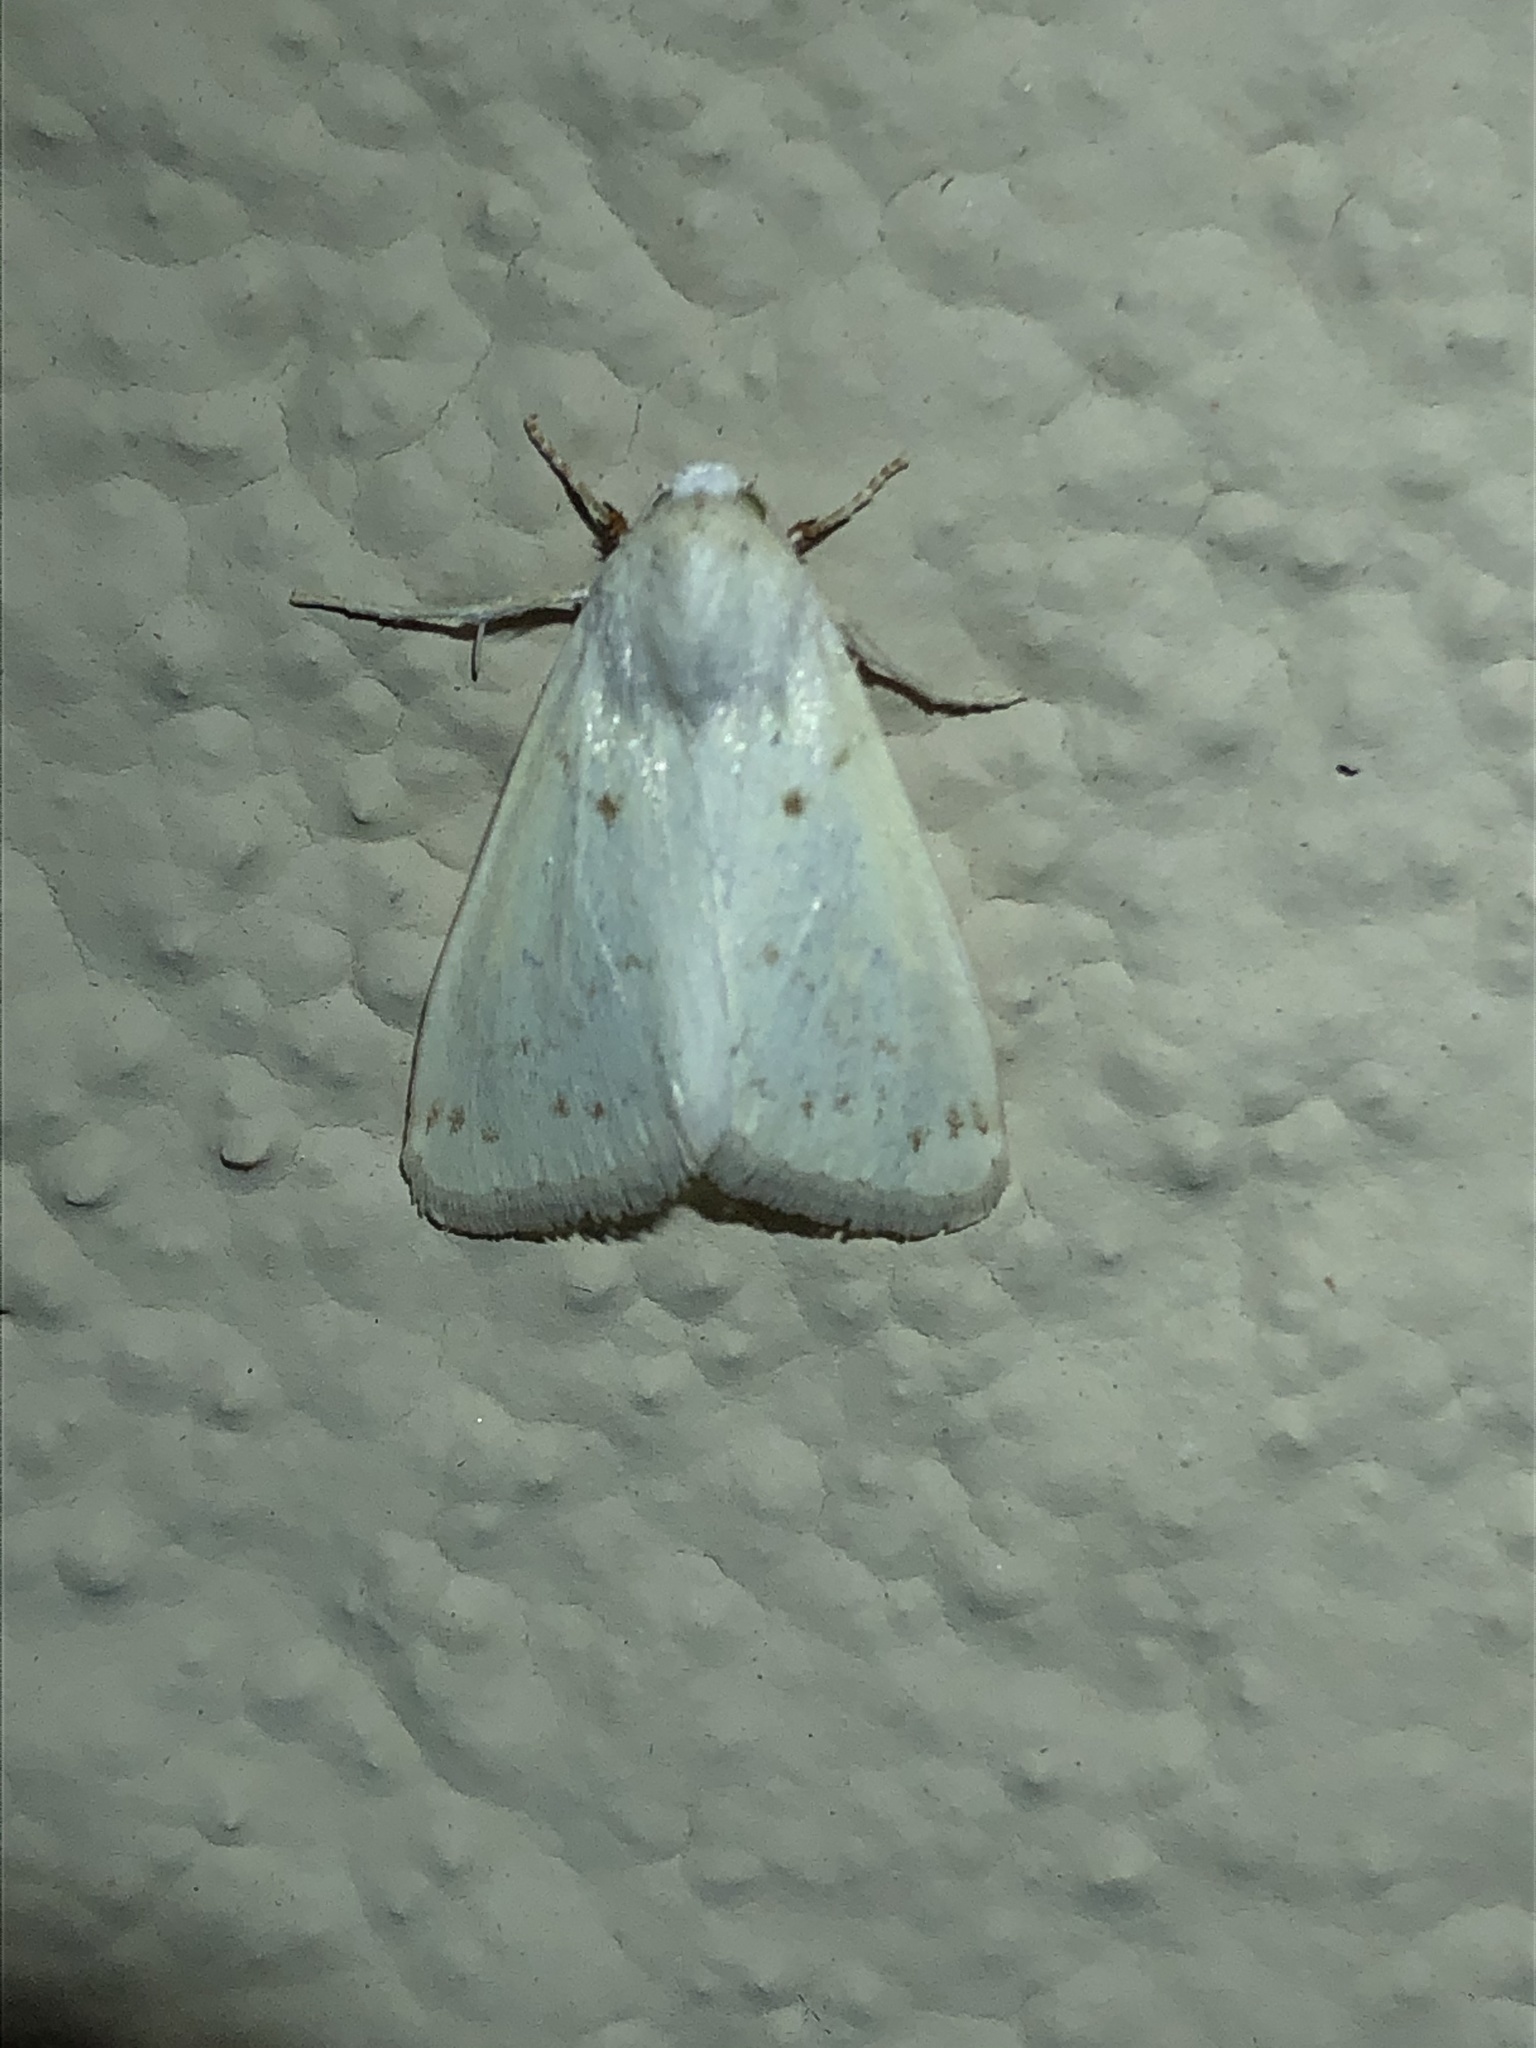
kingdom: Animalia
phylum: Arthropoda
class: Insecta
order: Lepidoptera
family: Noctuidae
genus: Schinia
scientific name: Schinia luxa
